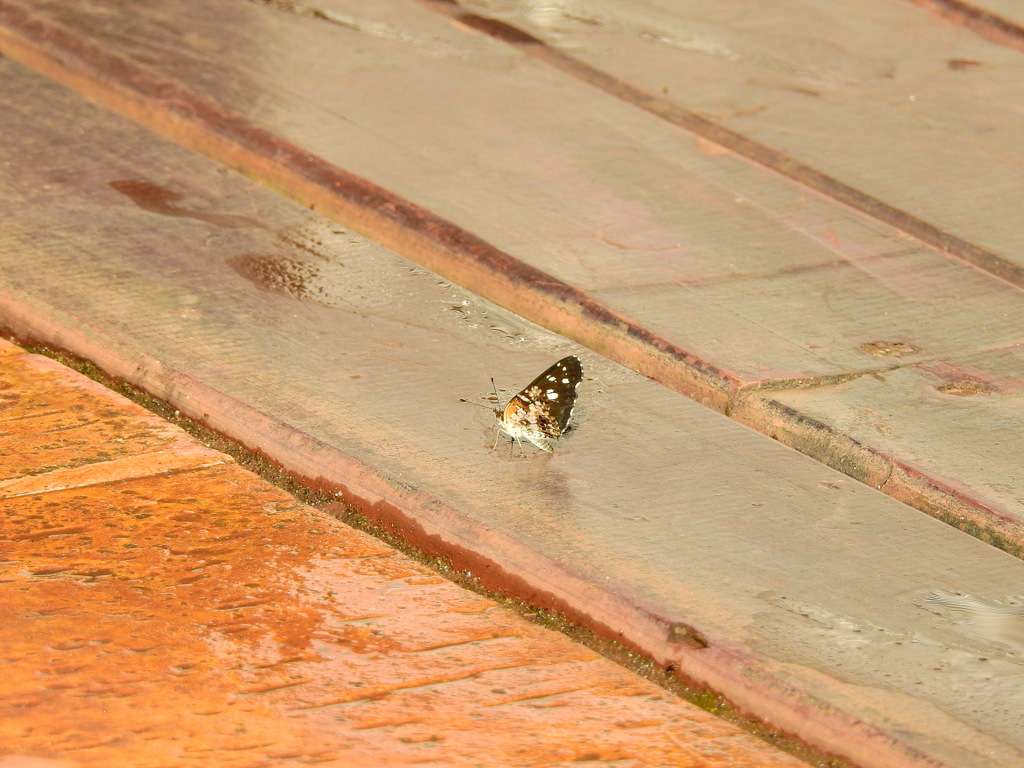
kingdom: Animalia
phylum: Arthropoda
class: Insecta
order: Lepidoptera
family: Nymphalidae
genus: Ortilia
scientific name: Ortilia ithra
